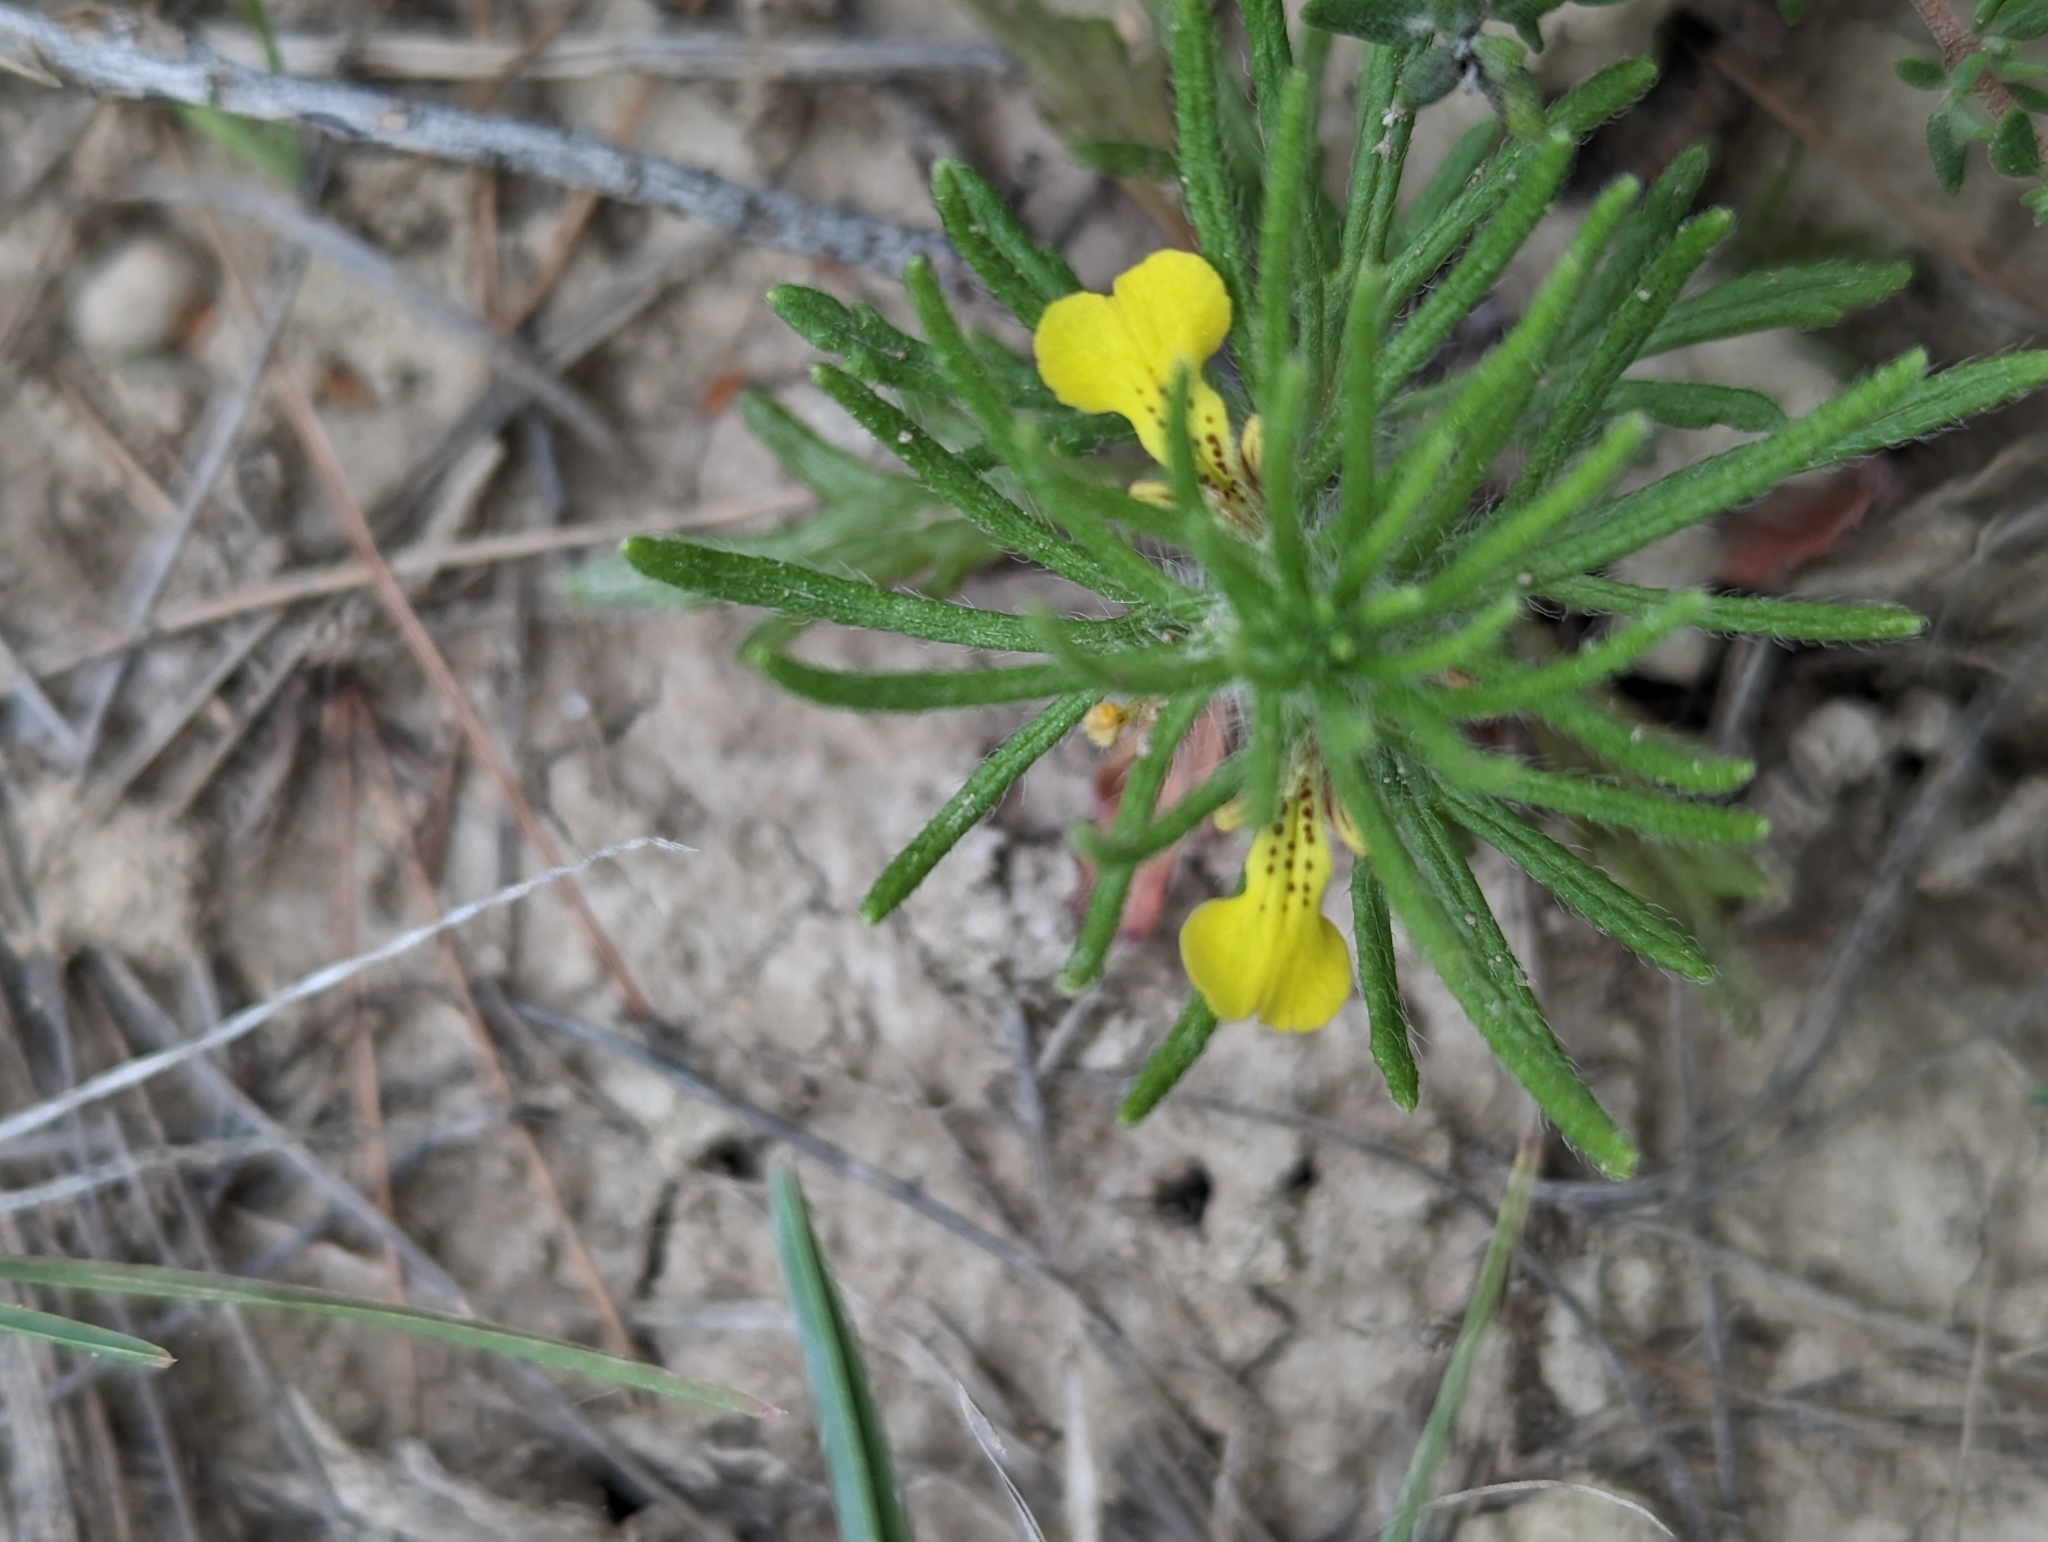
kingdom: Plantae
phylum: Tracheophyta
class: Magnoliopsida
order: Lamiales
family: Lamiaceae
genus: Ajuga
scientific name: Ajuga chamaepitys
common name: Ground-pine
